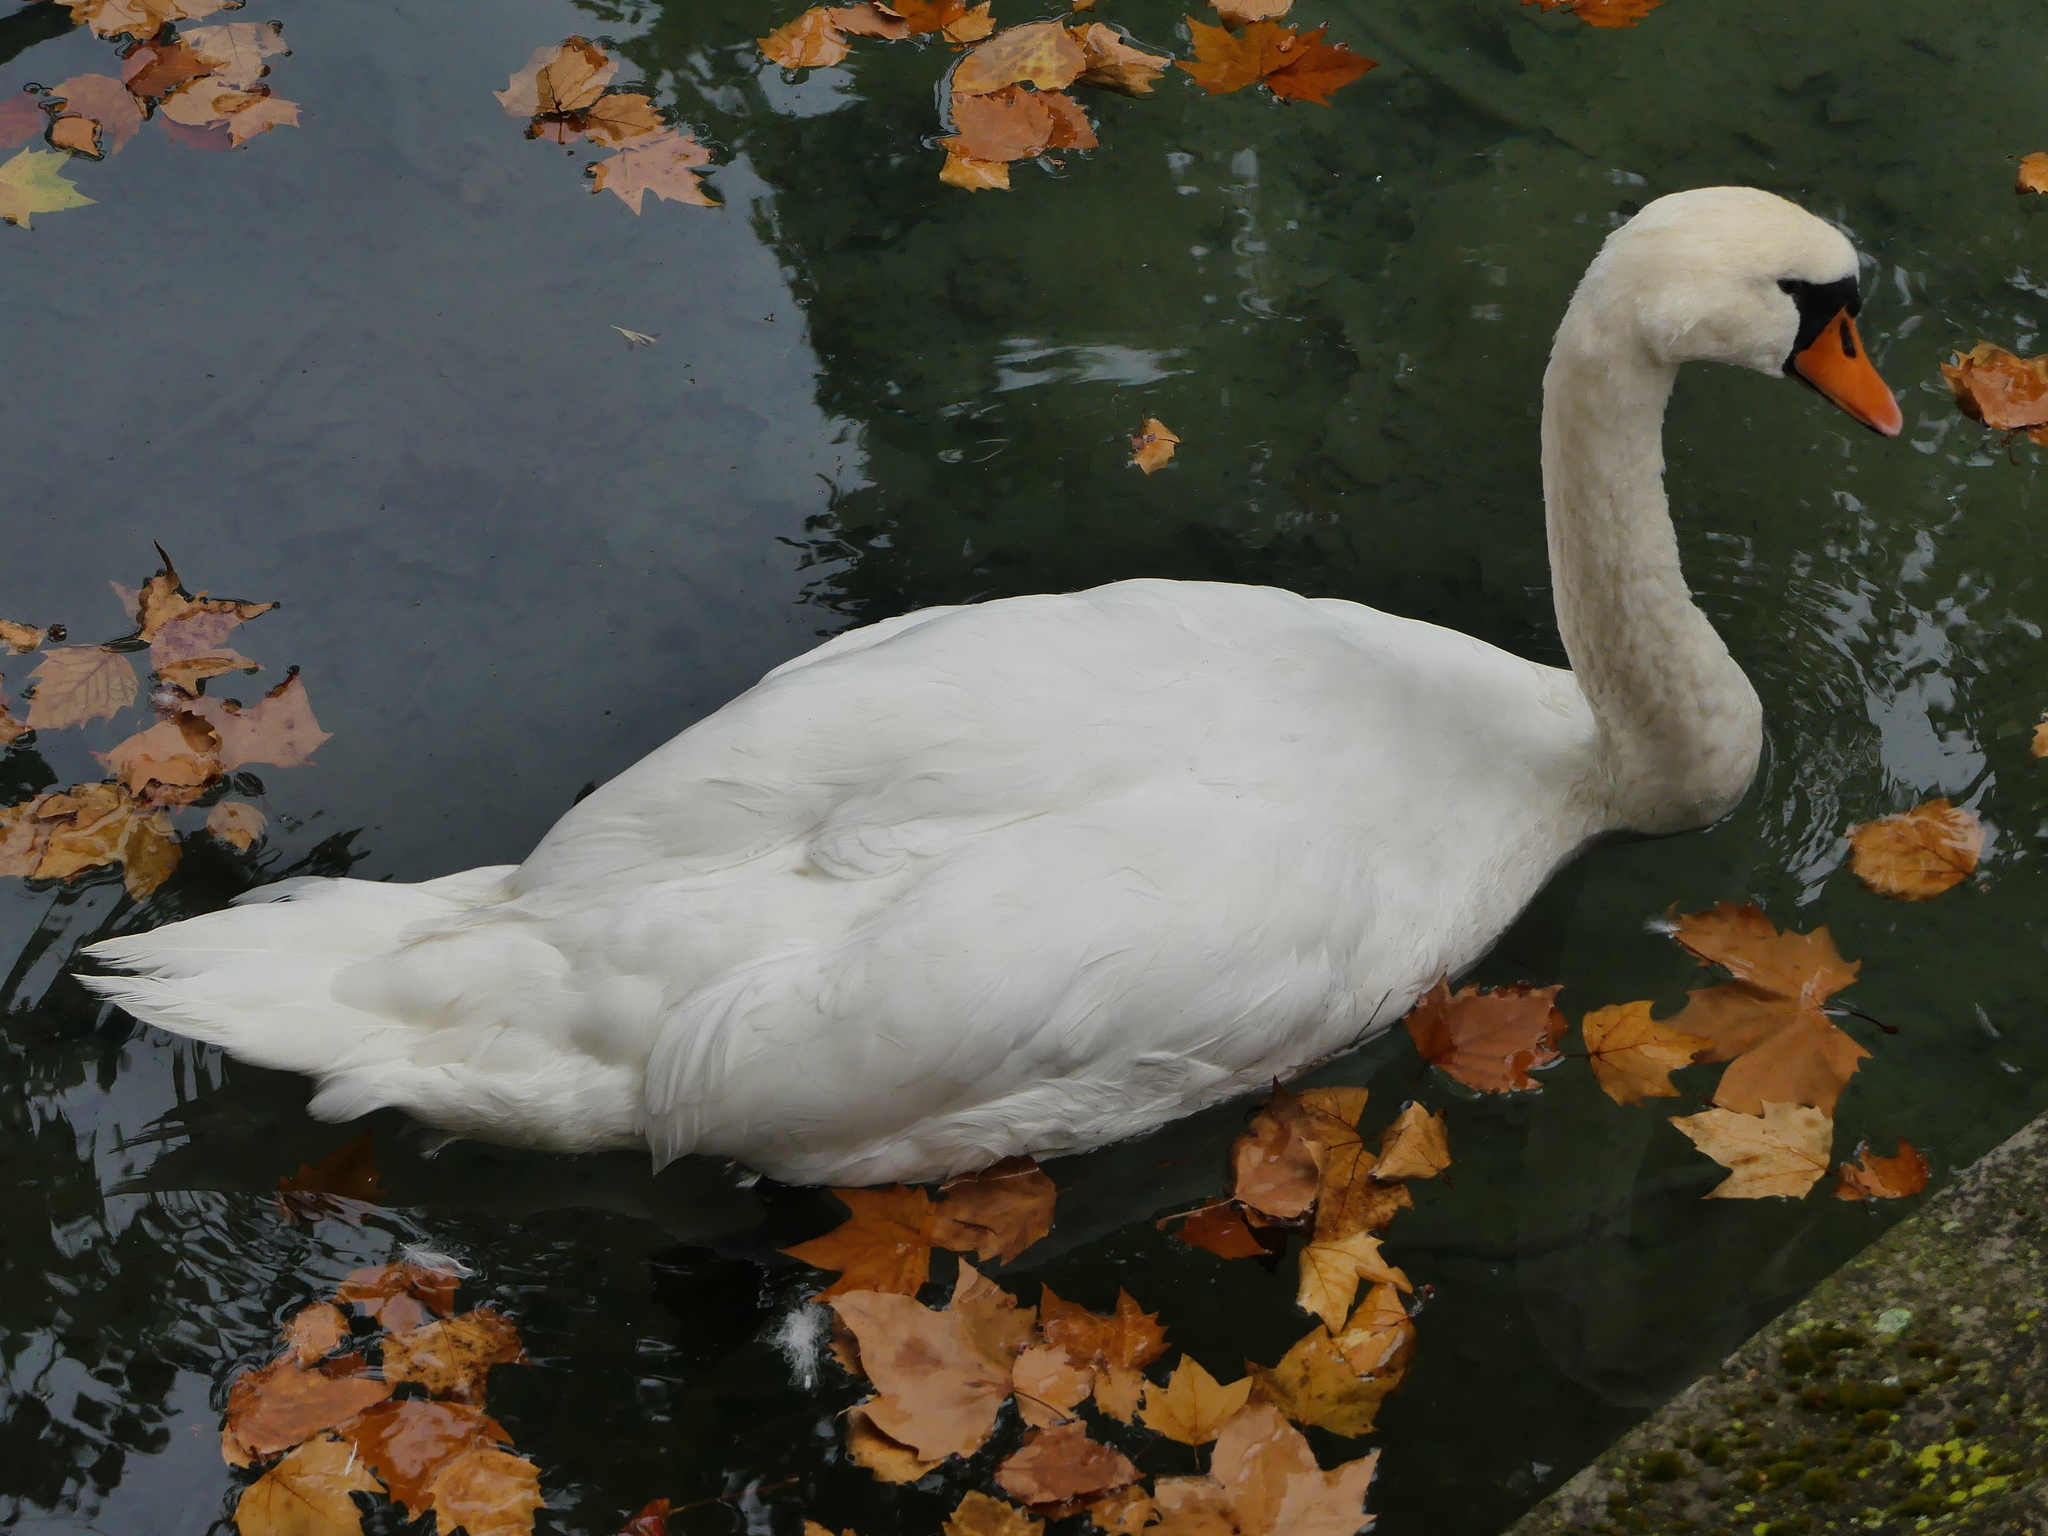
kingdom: Animalia
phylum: Chordata
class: Aves
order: Anseriformes
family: Anatidae
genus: Cygnus
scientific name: Cygnus olor
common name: Mute swan
